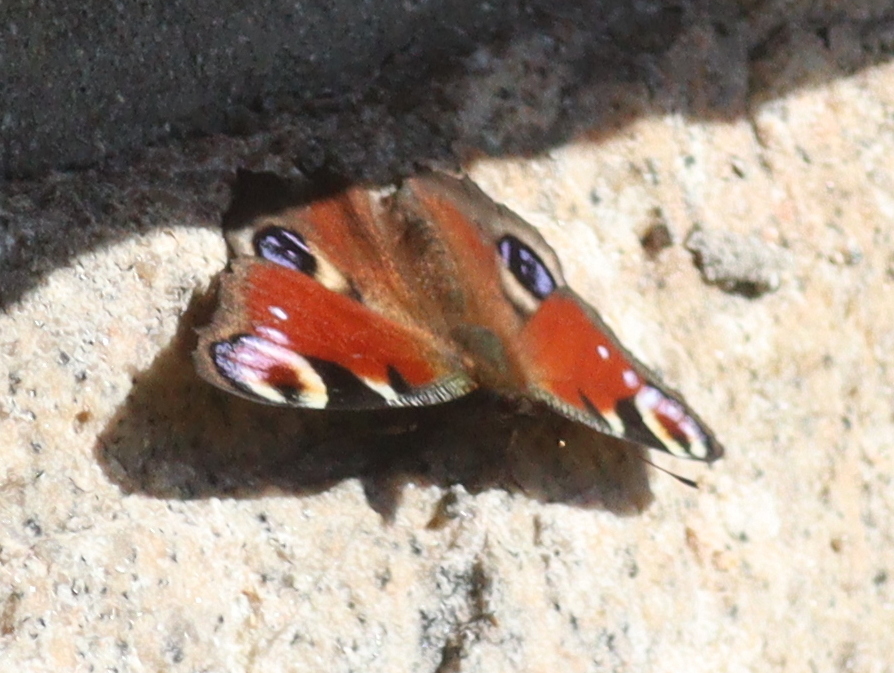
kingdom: Animalia
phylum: Arthropoda
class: Insecta
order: Lepidoptera
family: Nymphalidae
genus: Aglais
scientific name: Aglais io
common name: Peacock
